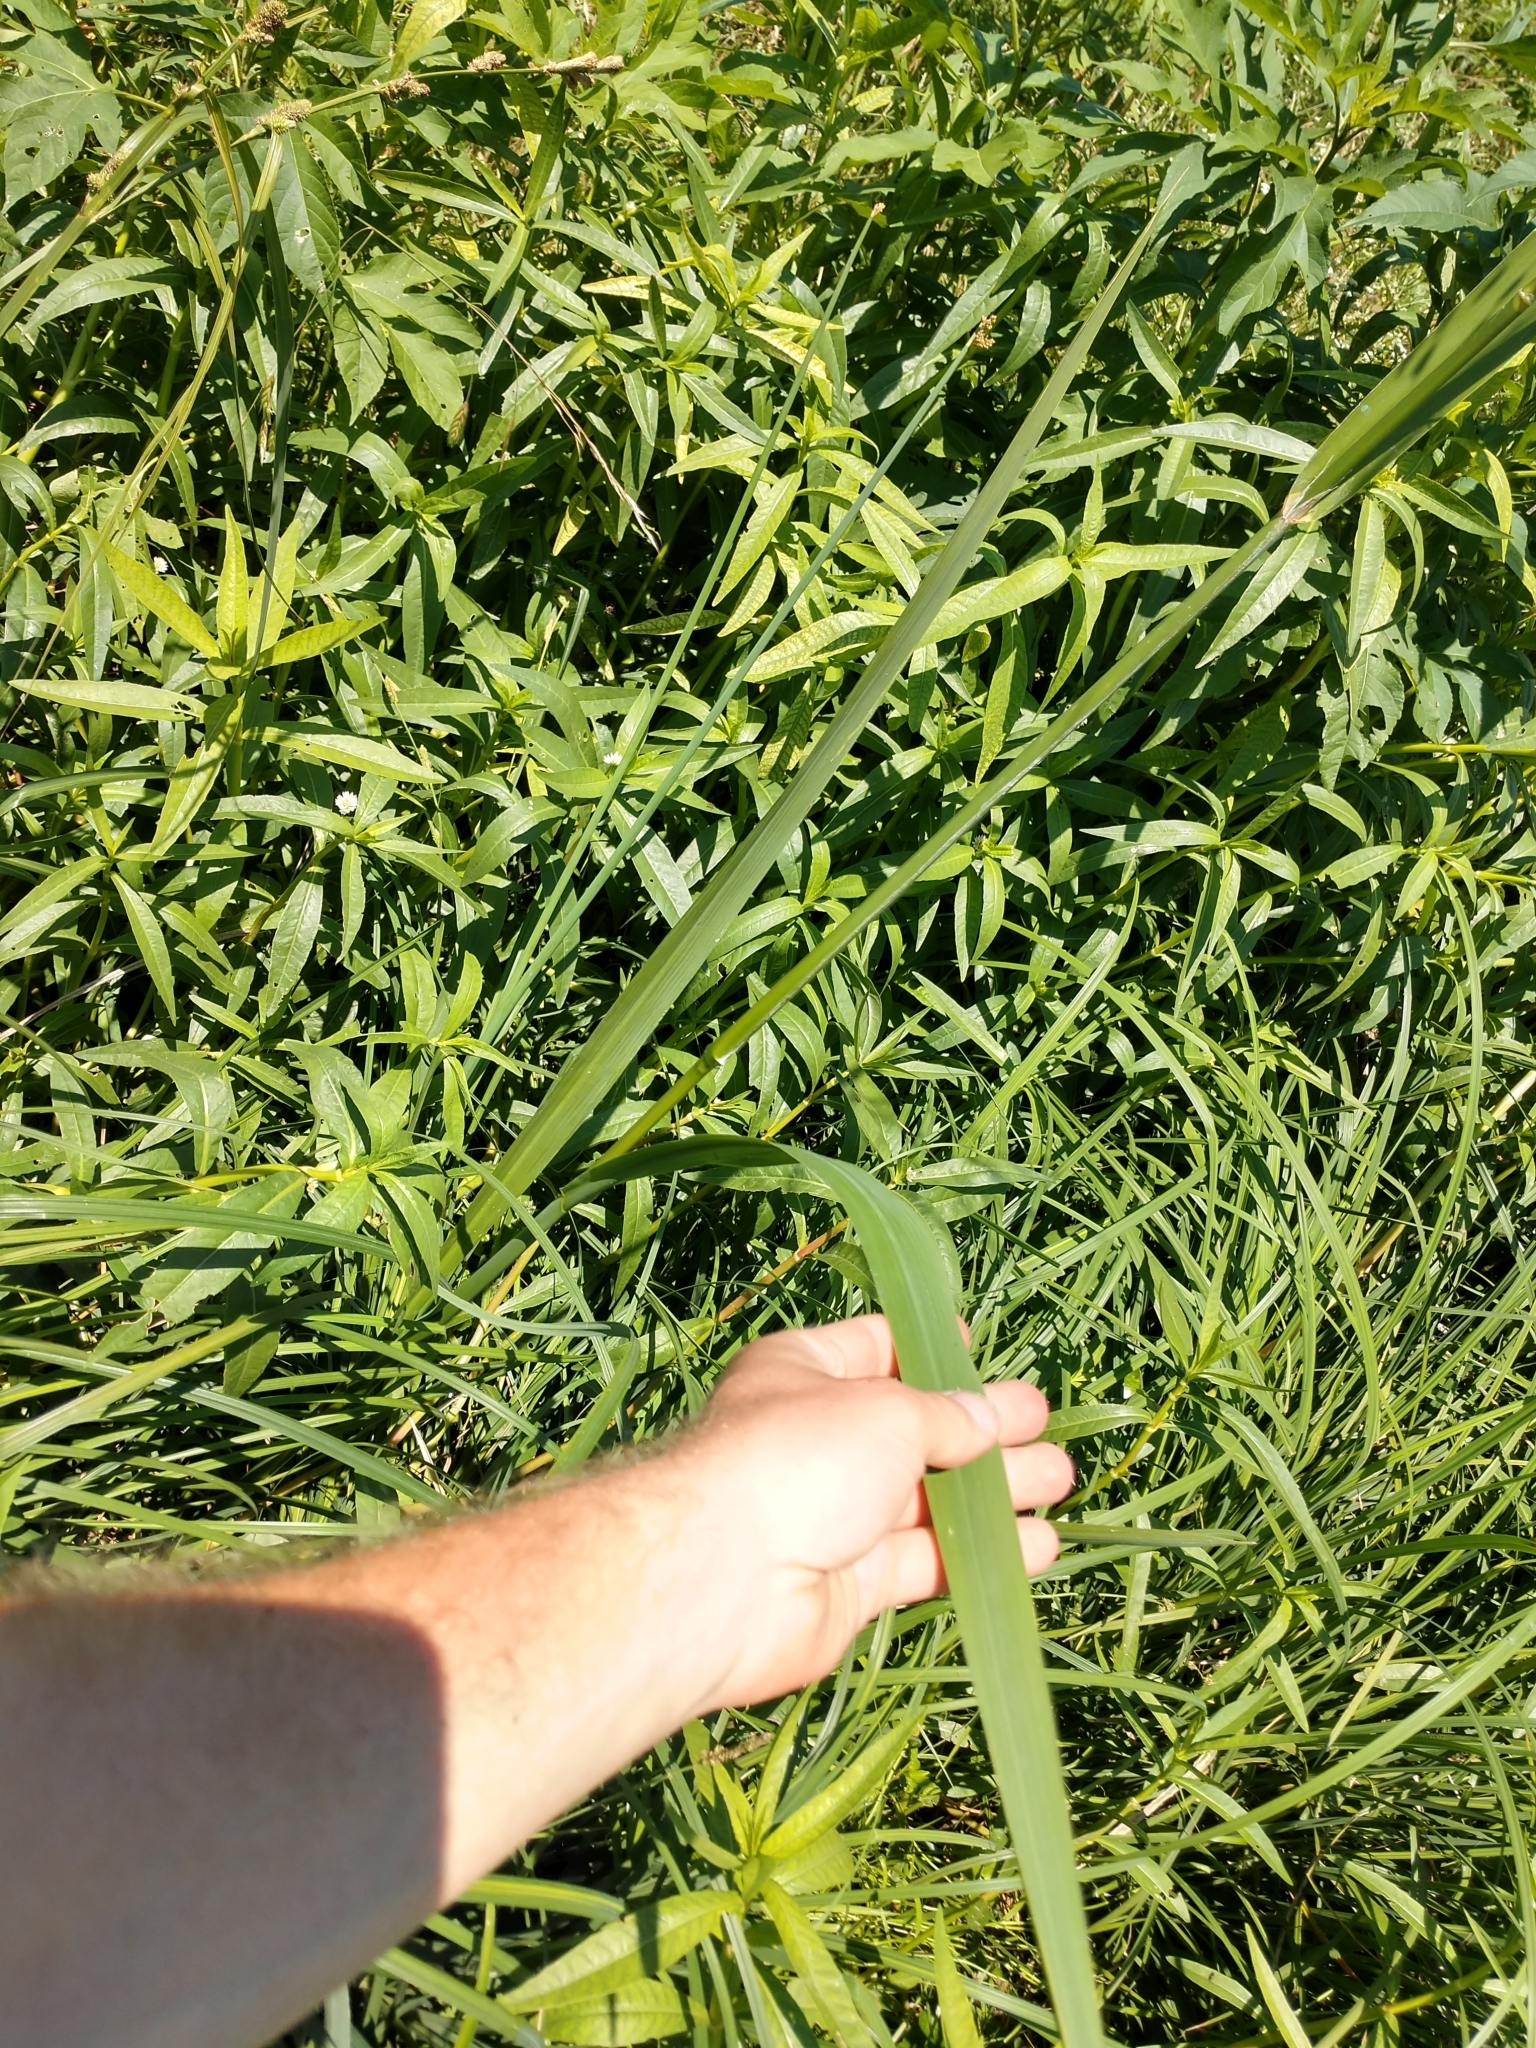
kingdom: Plantae
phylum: Tracheophyta
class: Liliopsida
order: Poales
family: Poaceae
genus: Zizaniopsis
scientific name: Zizaniopsis miliacea
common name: Giant-cutgrass
